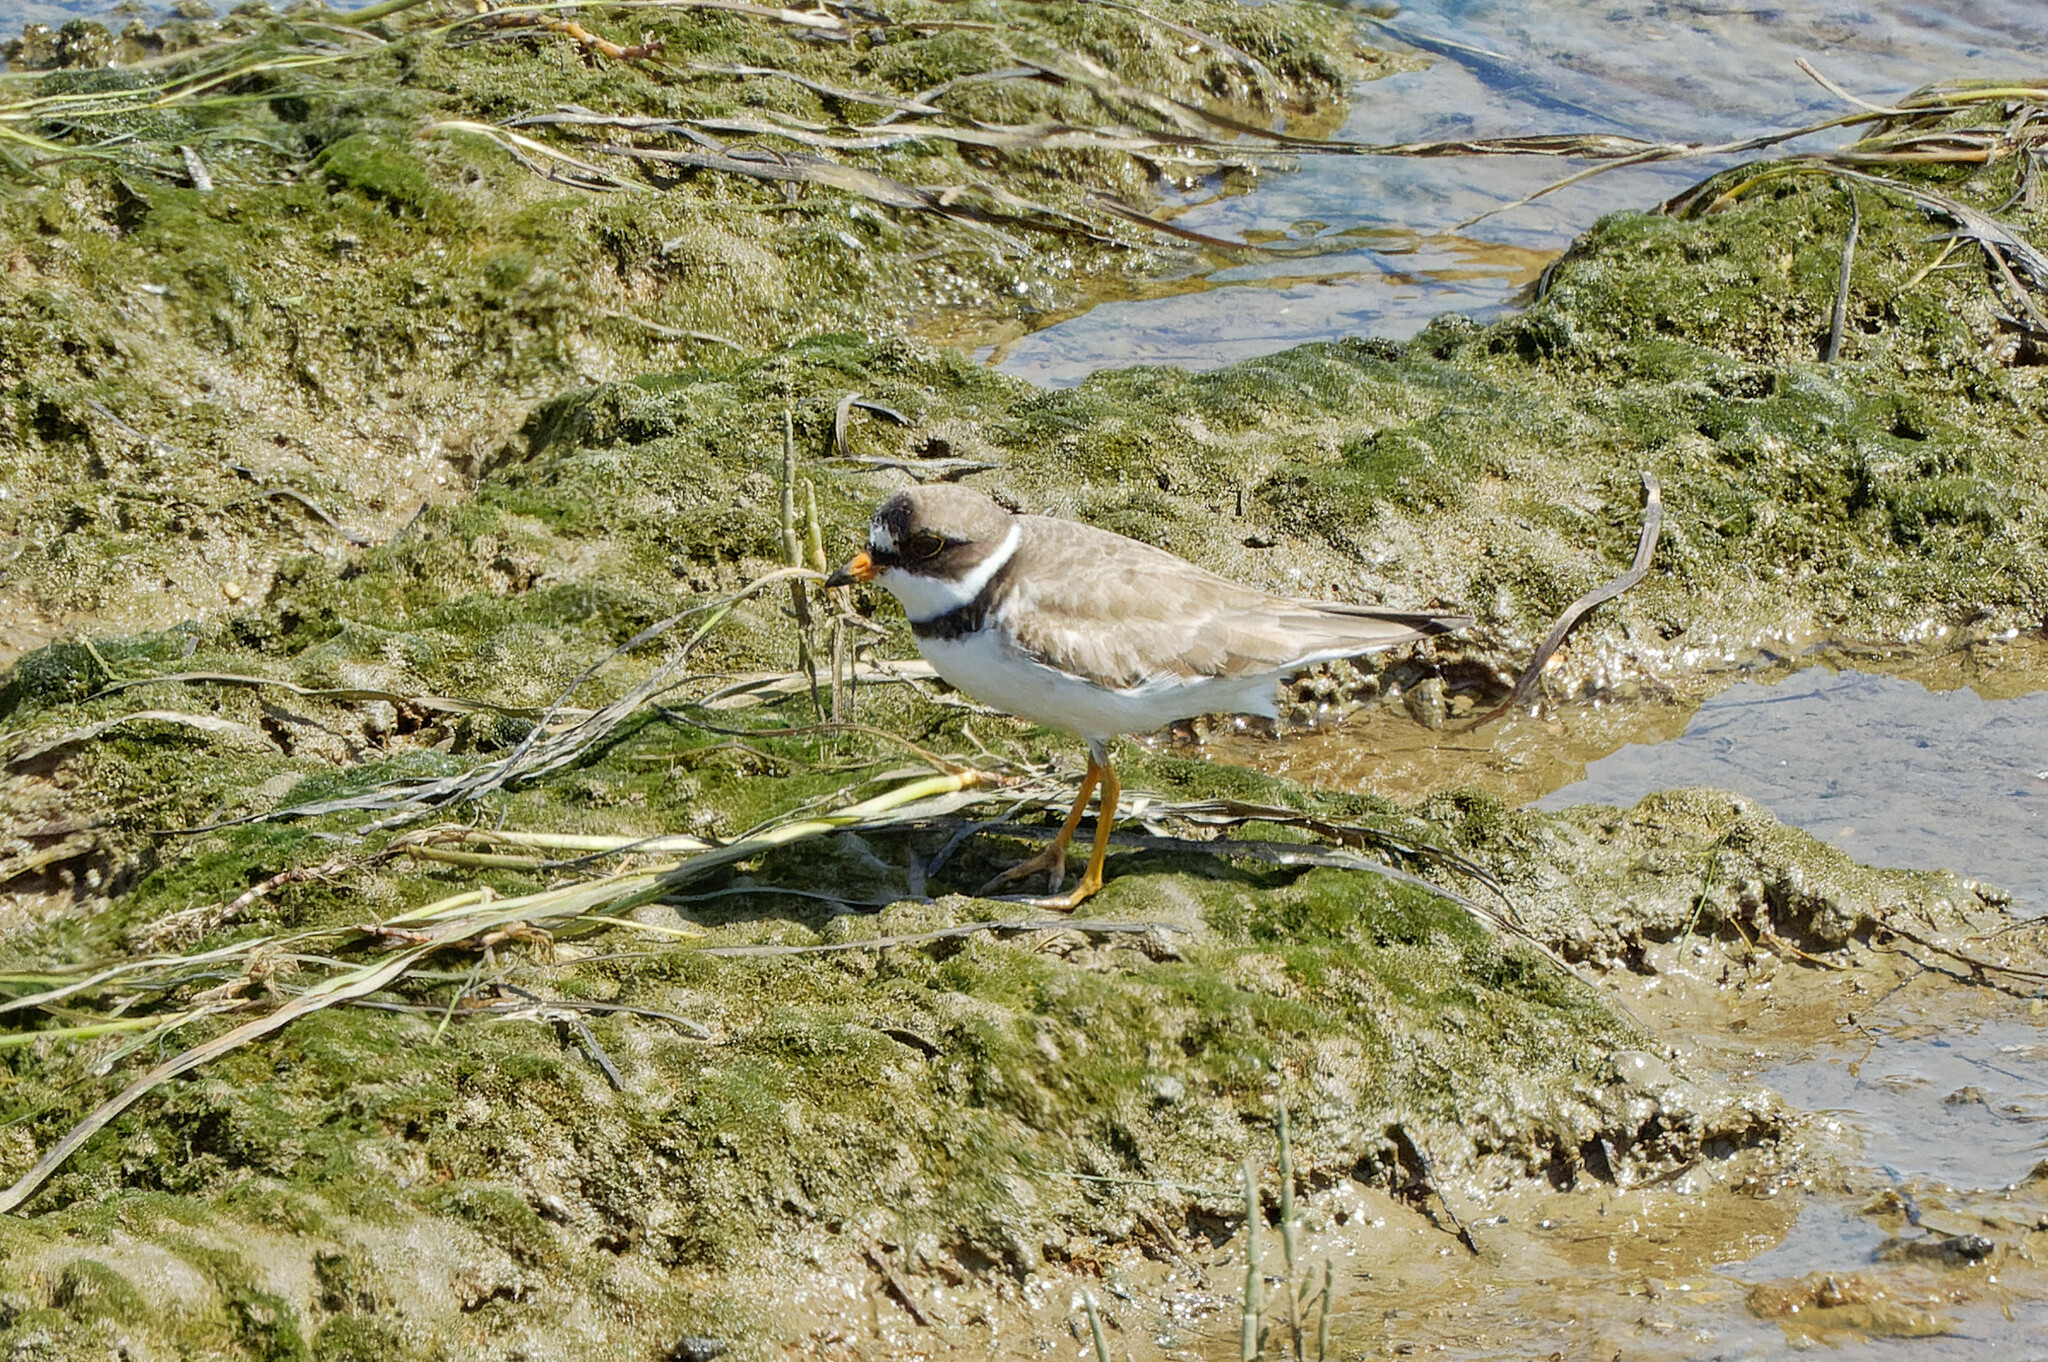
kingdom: Animalia
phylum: Chordata
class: Aves
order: Charadriiformes
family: Charadriidae
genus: Charadrius
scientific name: Charadrius semipalmatus
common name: Semipalmated plover
